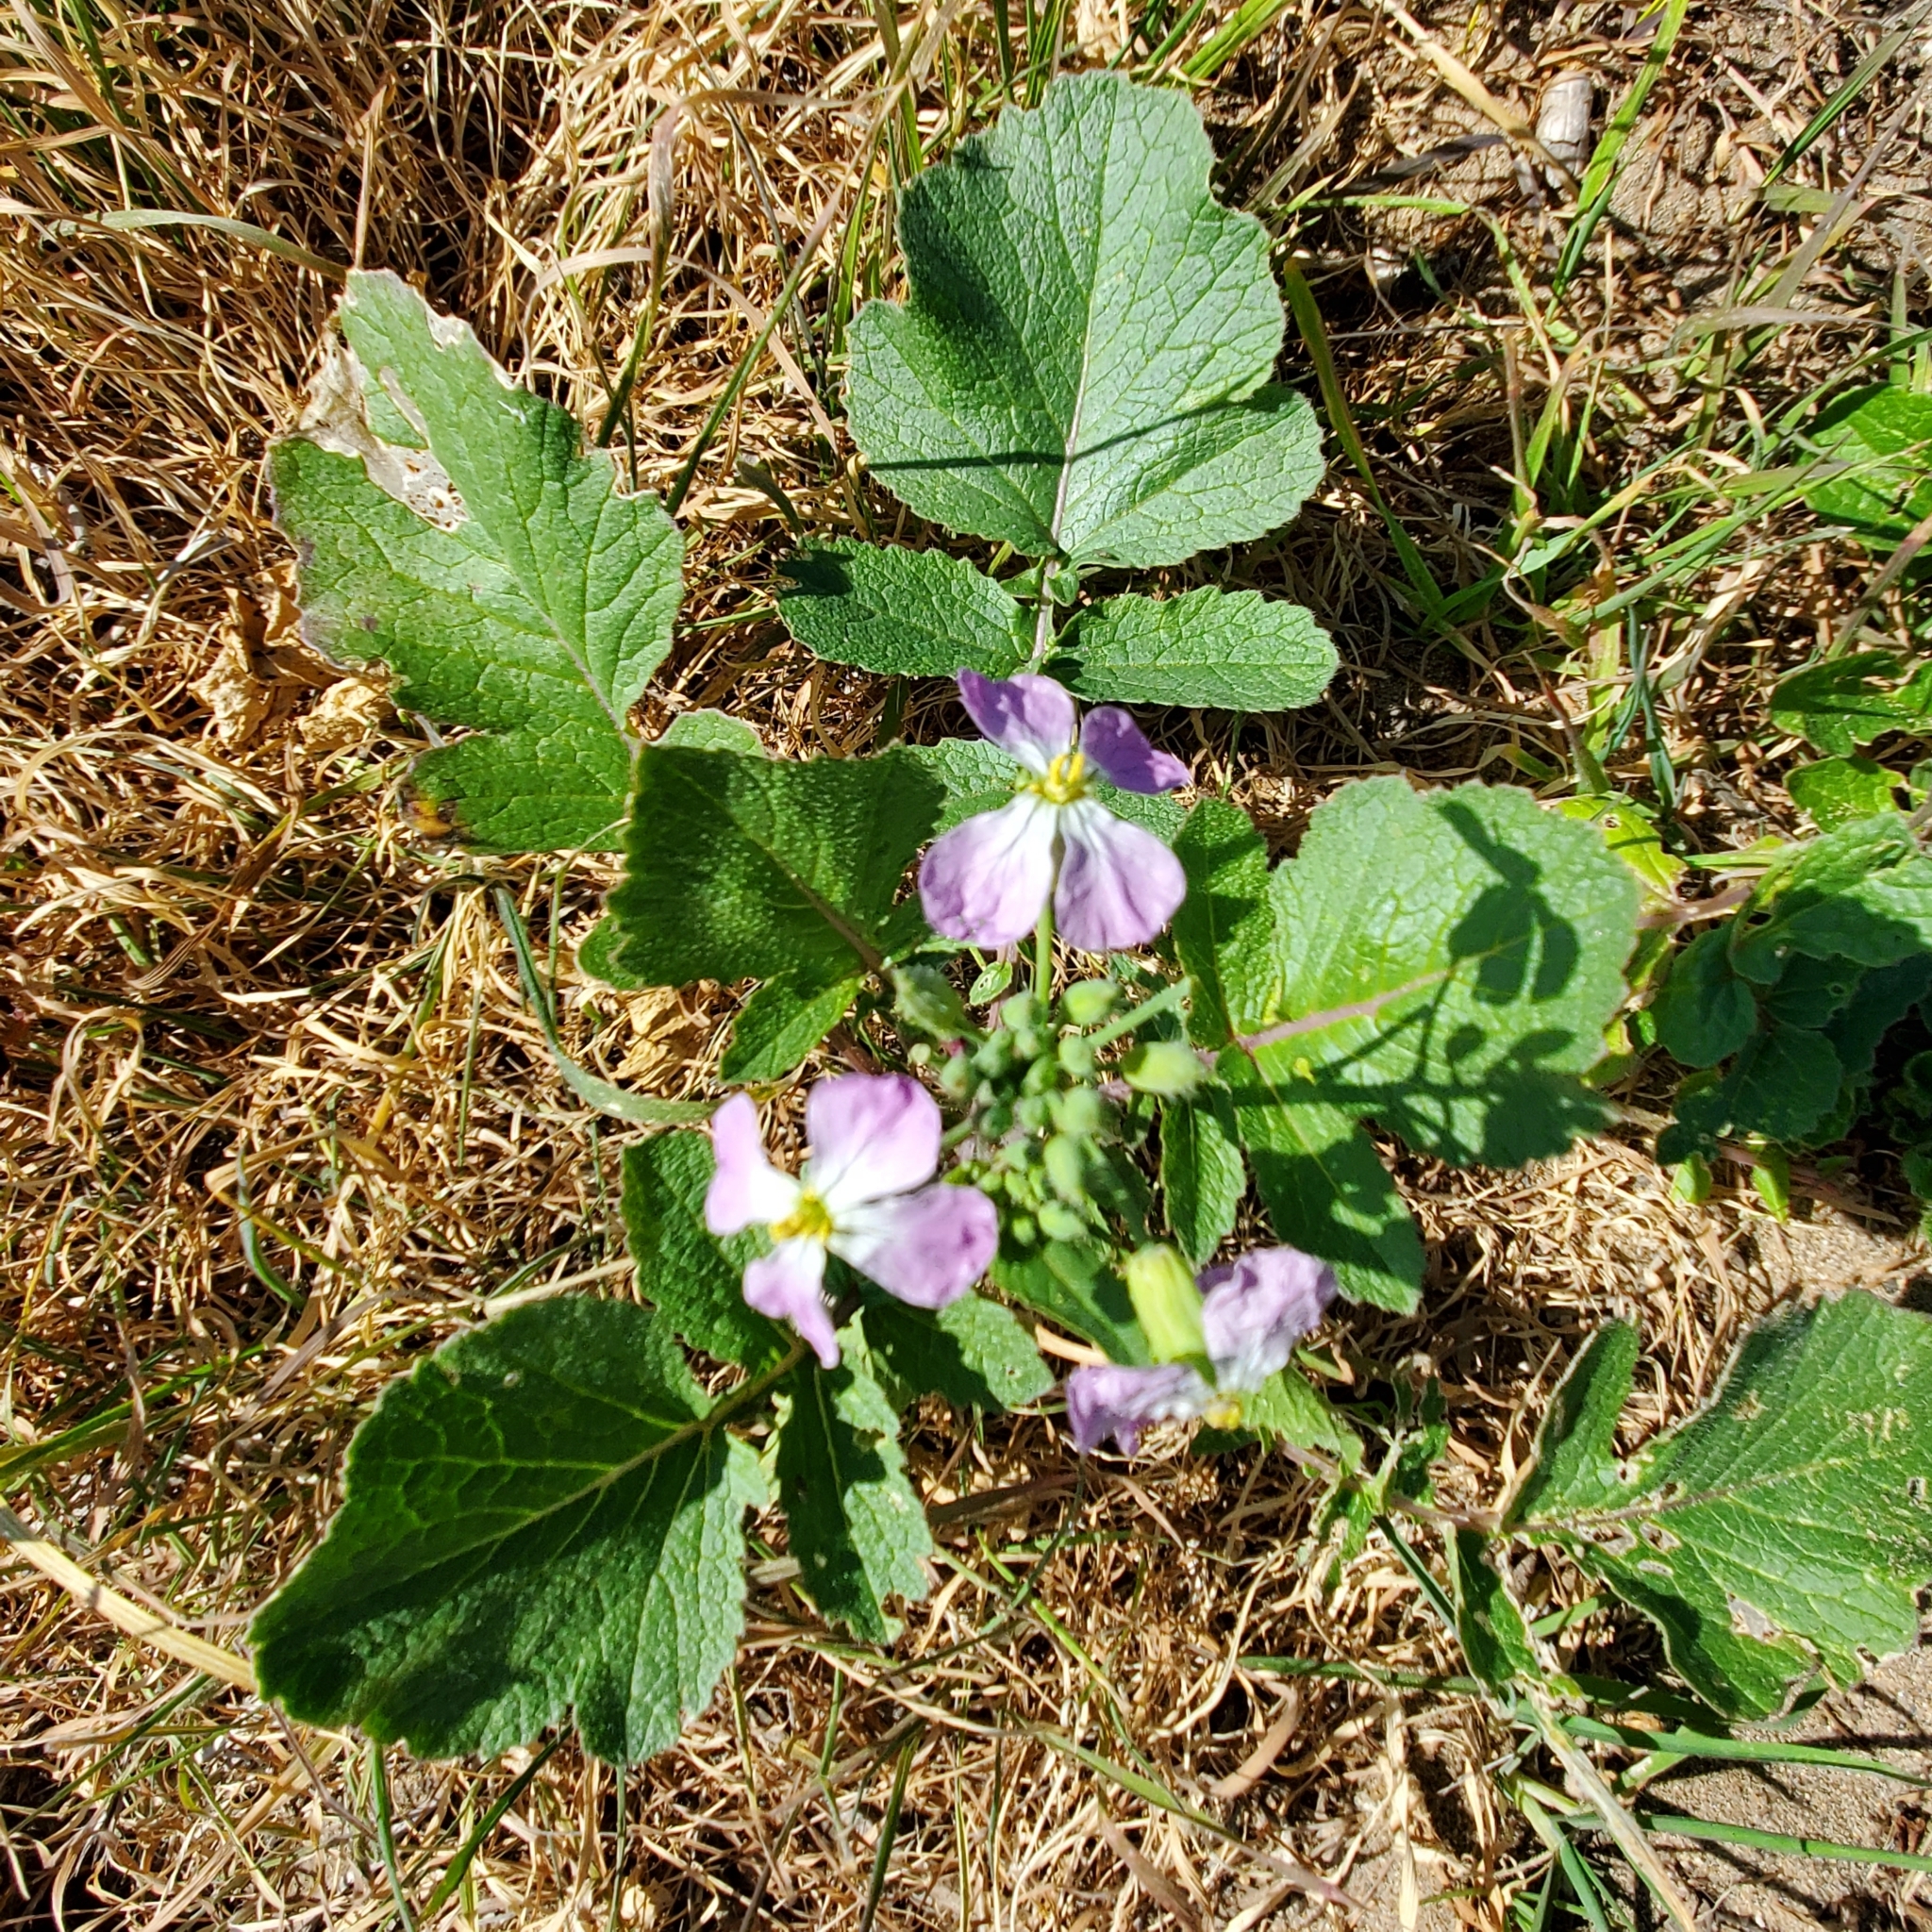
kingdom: Plantae
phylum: Tracheophyta
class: Magnoliopsida
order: Brassicales
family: Brassicaceae
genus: Raphanus
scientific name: Raphanus sativus
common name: Cultivated radish
